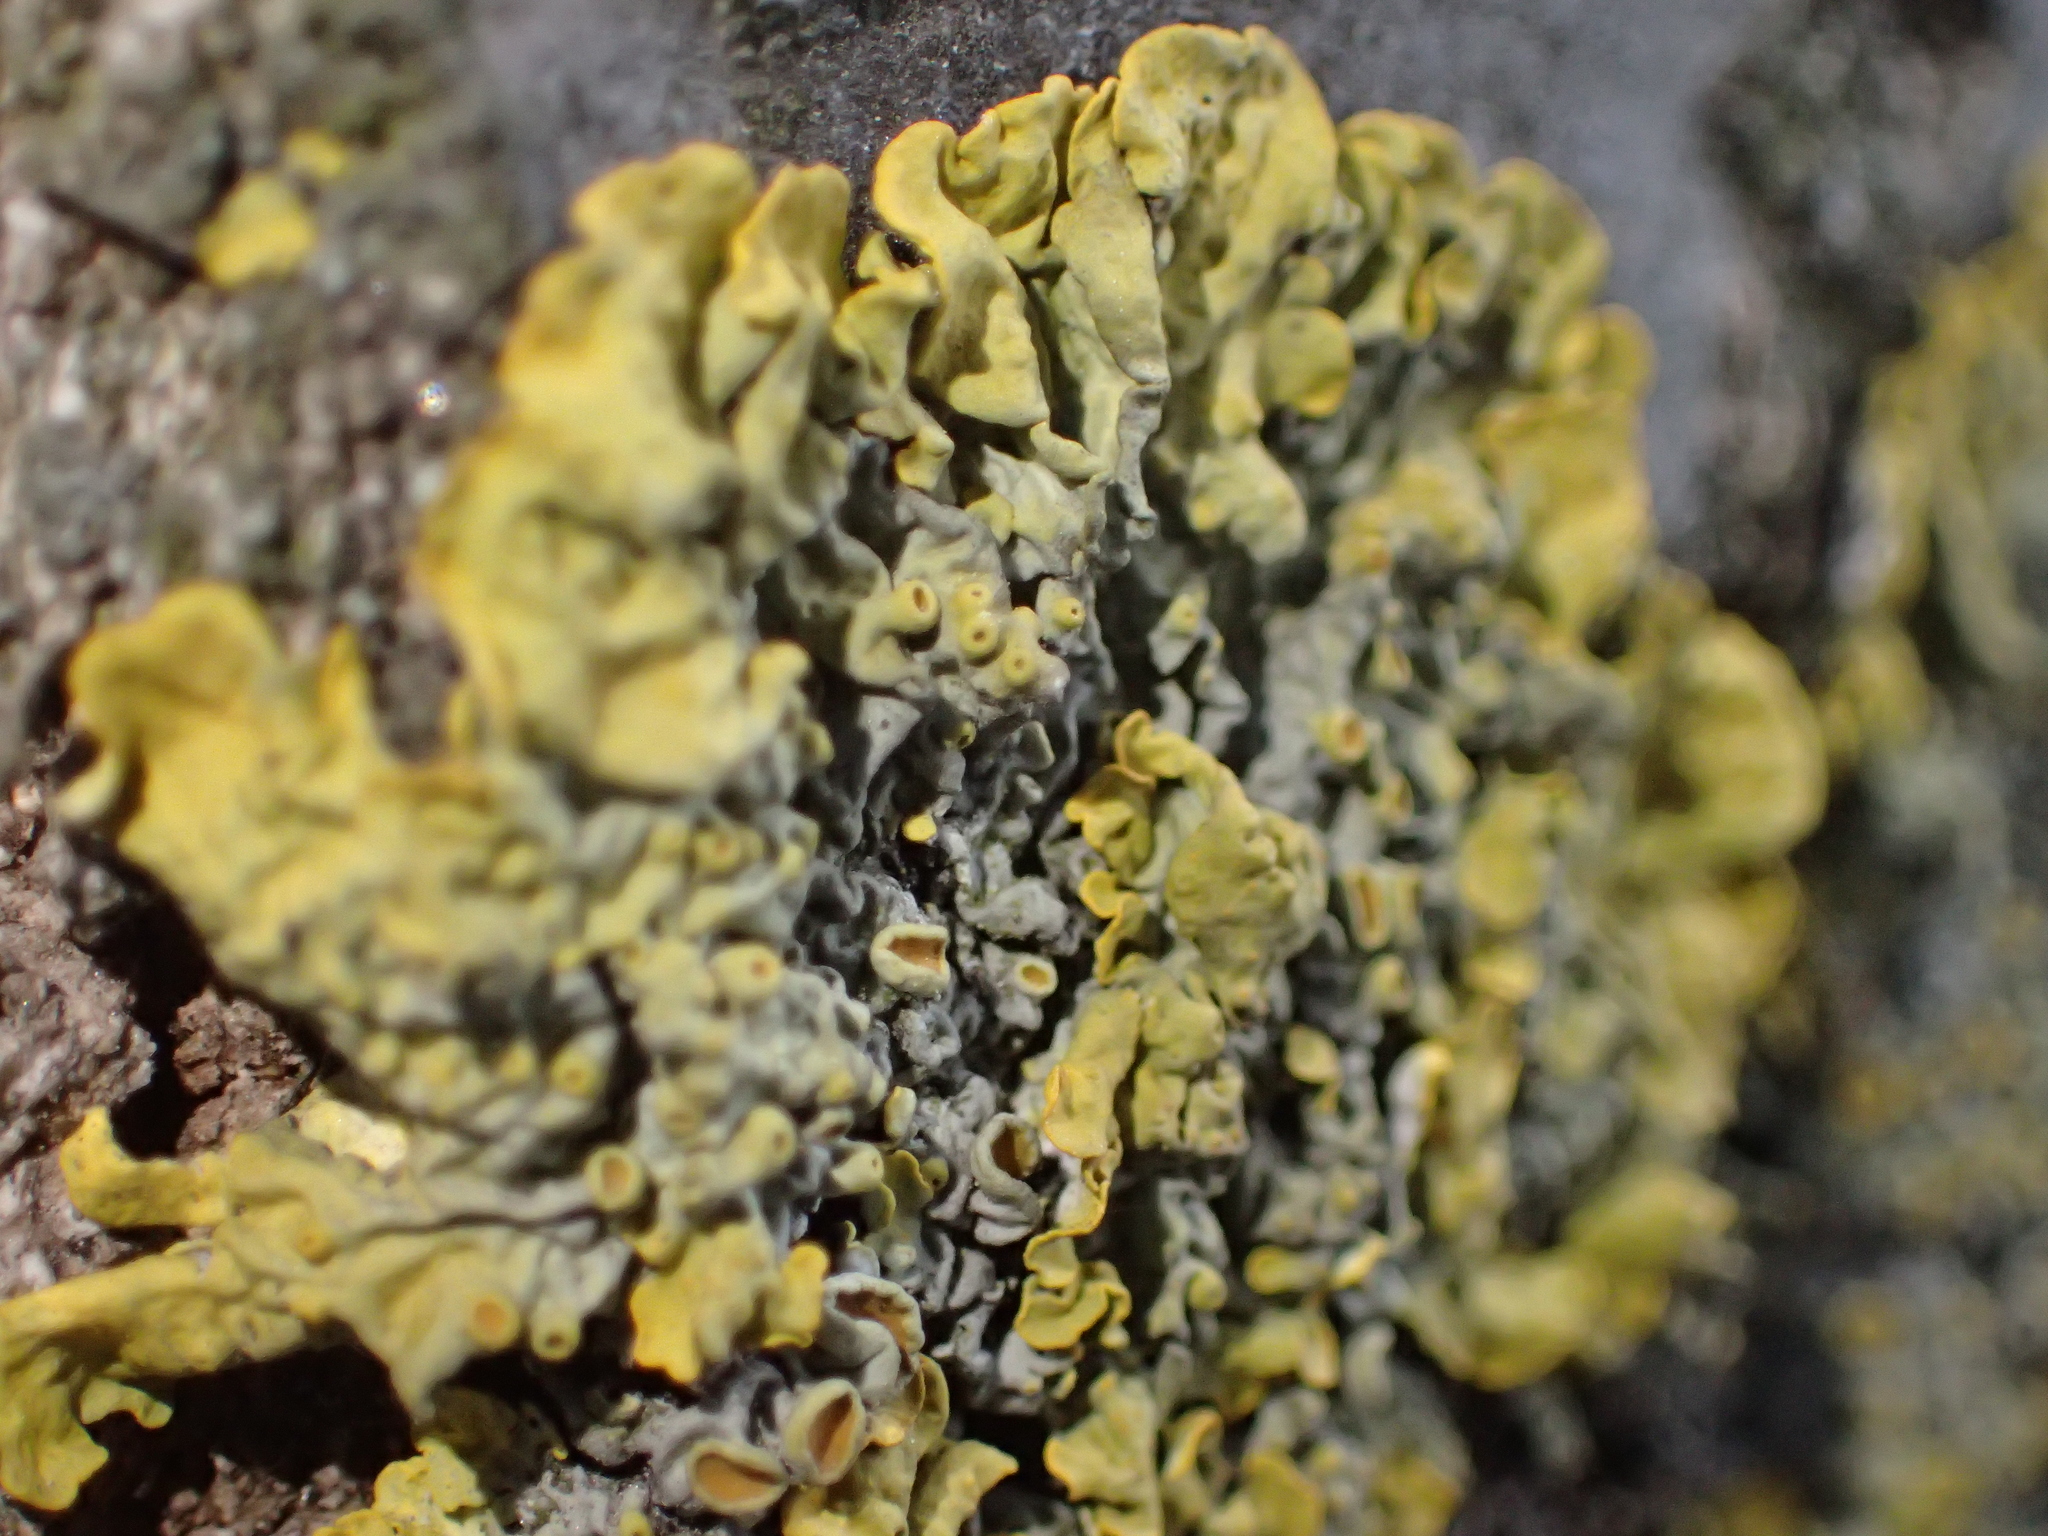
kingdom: Fungi
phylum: Ascomycota
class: Lecanoromycetes
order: Teloschistales
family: Teloschistaceae
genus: Xanthoria
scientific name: Xanthoria parietina
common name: Common orange lichen
